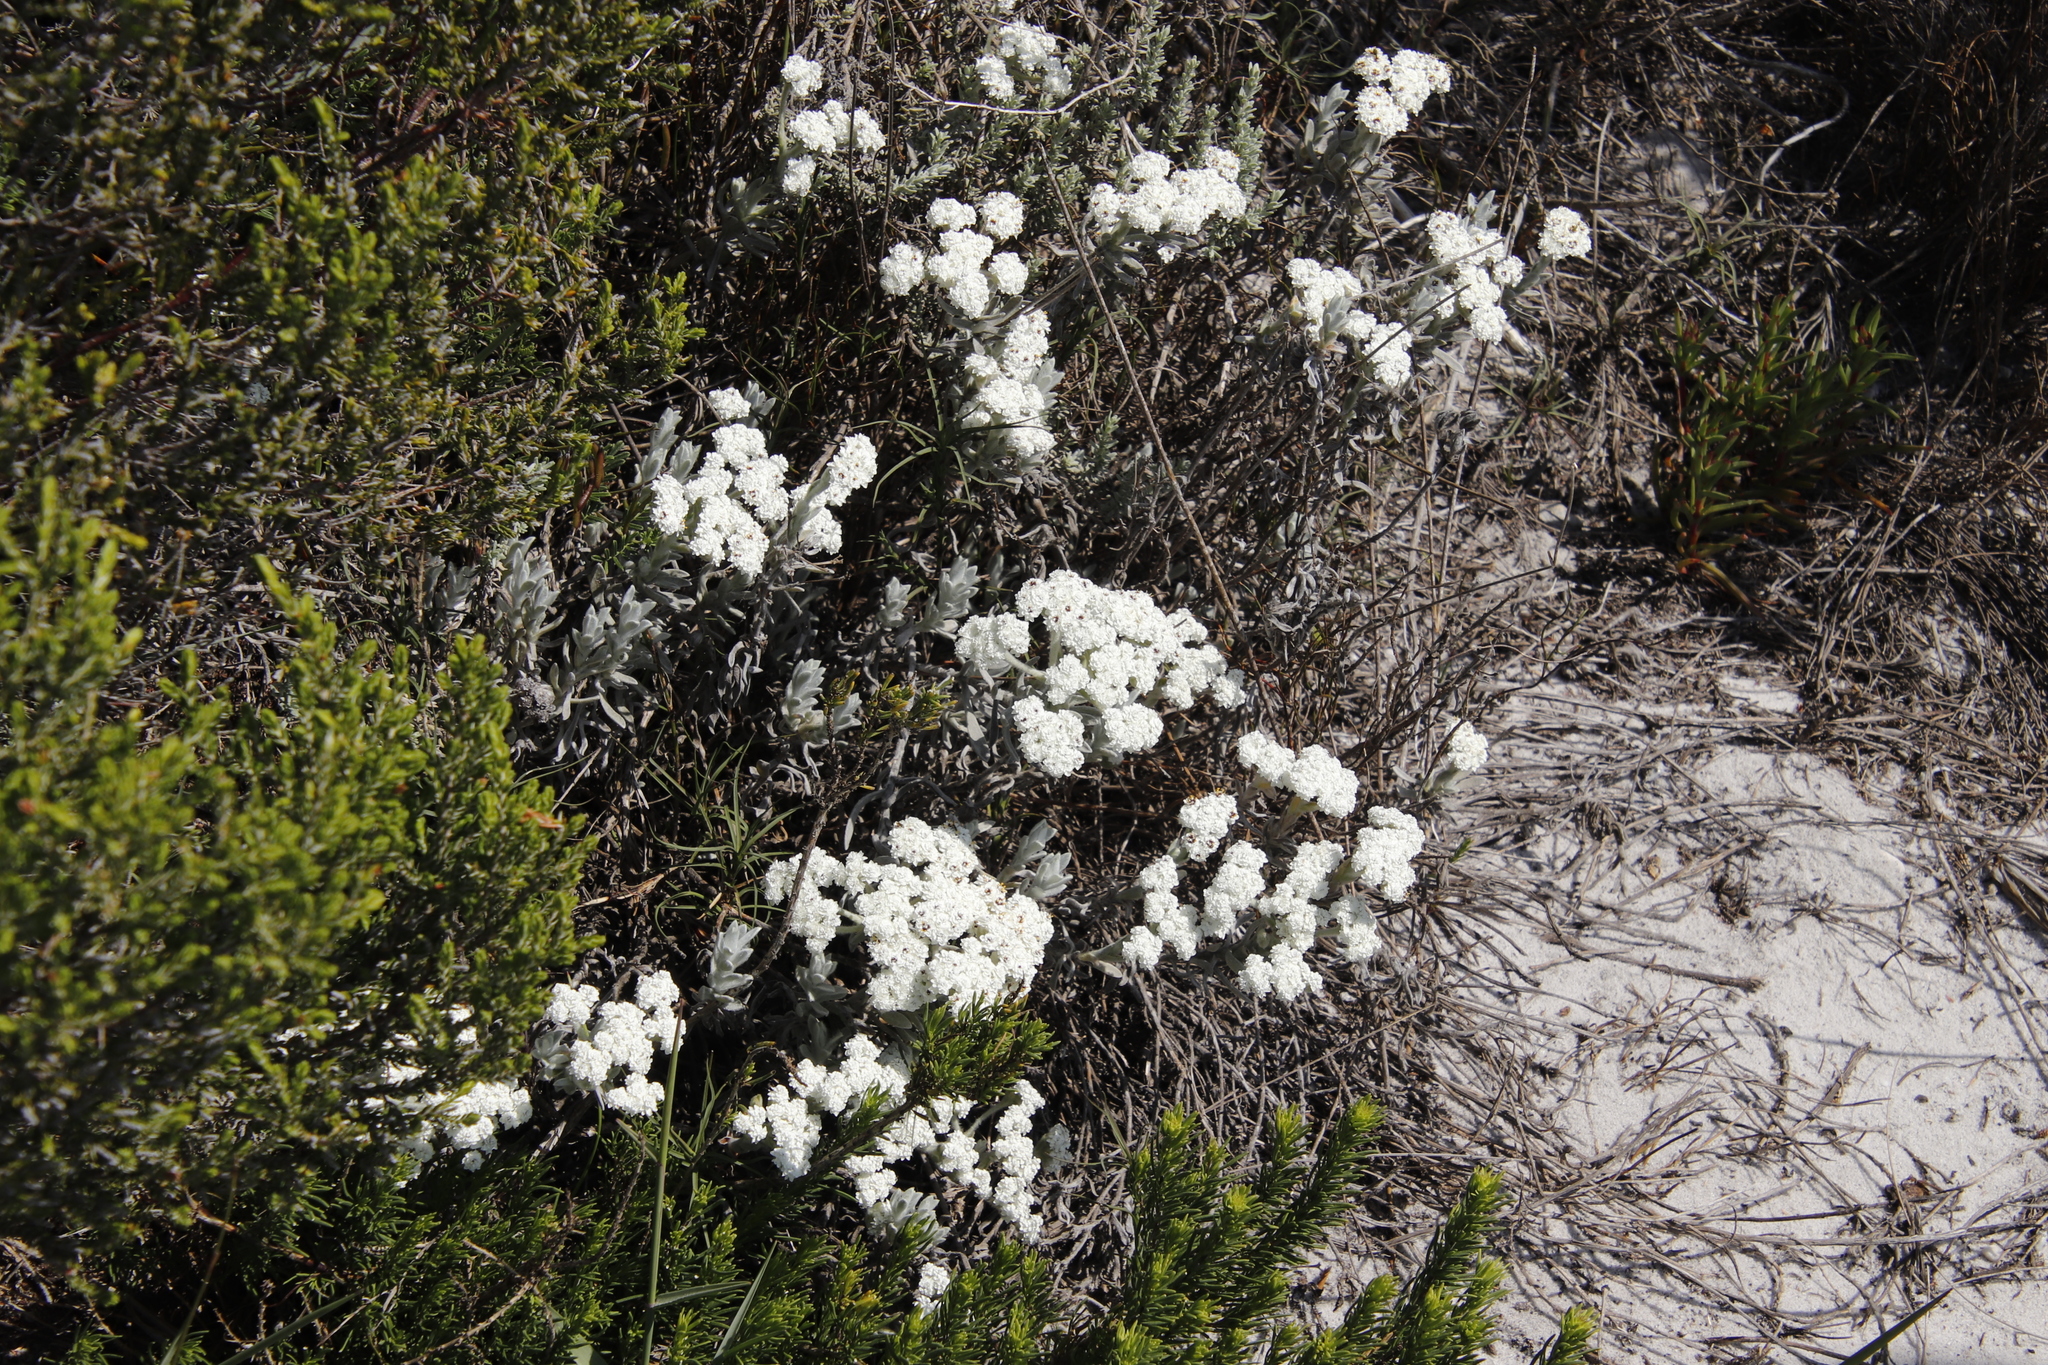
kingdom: Plantae
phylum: Tracheophyta
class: Magnoliopsida
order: Asterales
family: Asteraceae
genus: Petalacte
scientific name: Petalacte coronata
